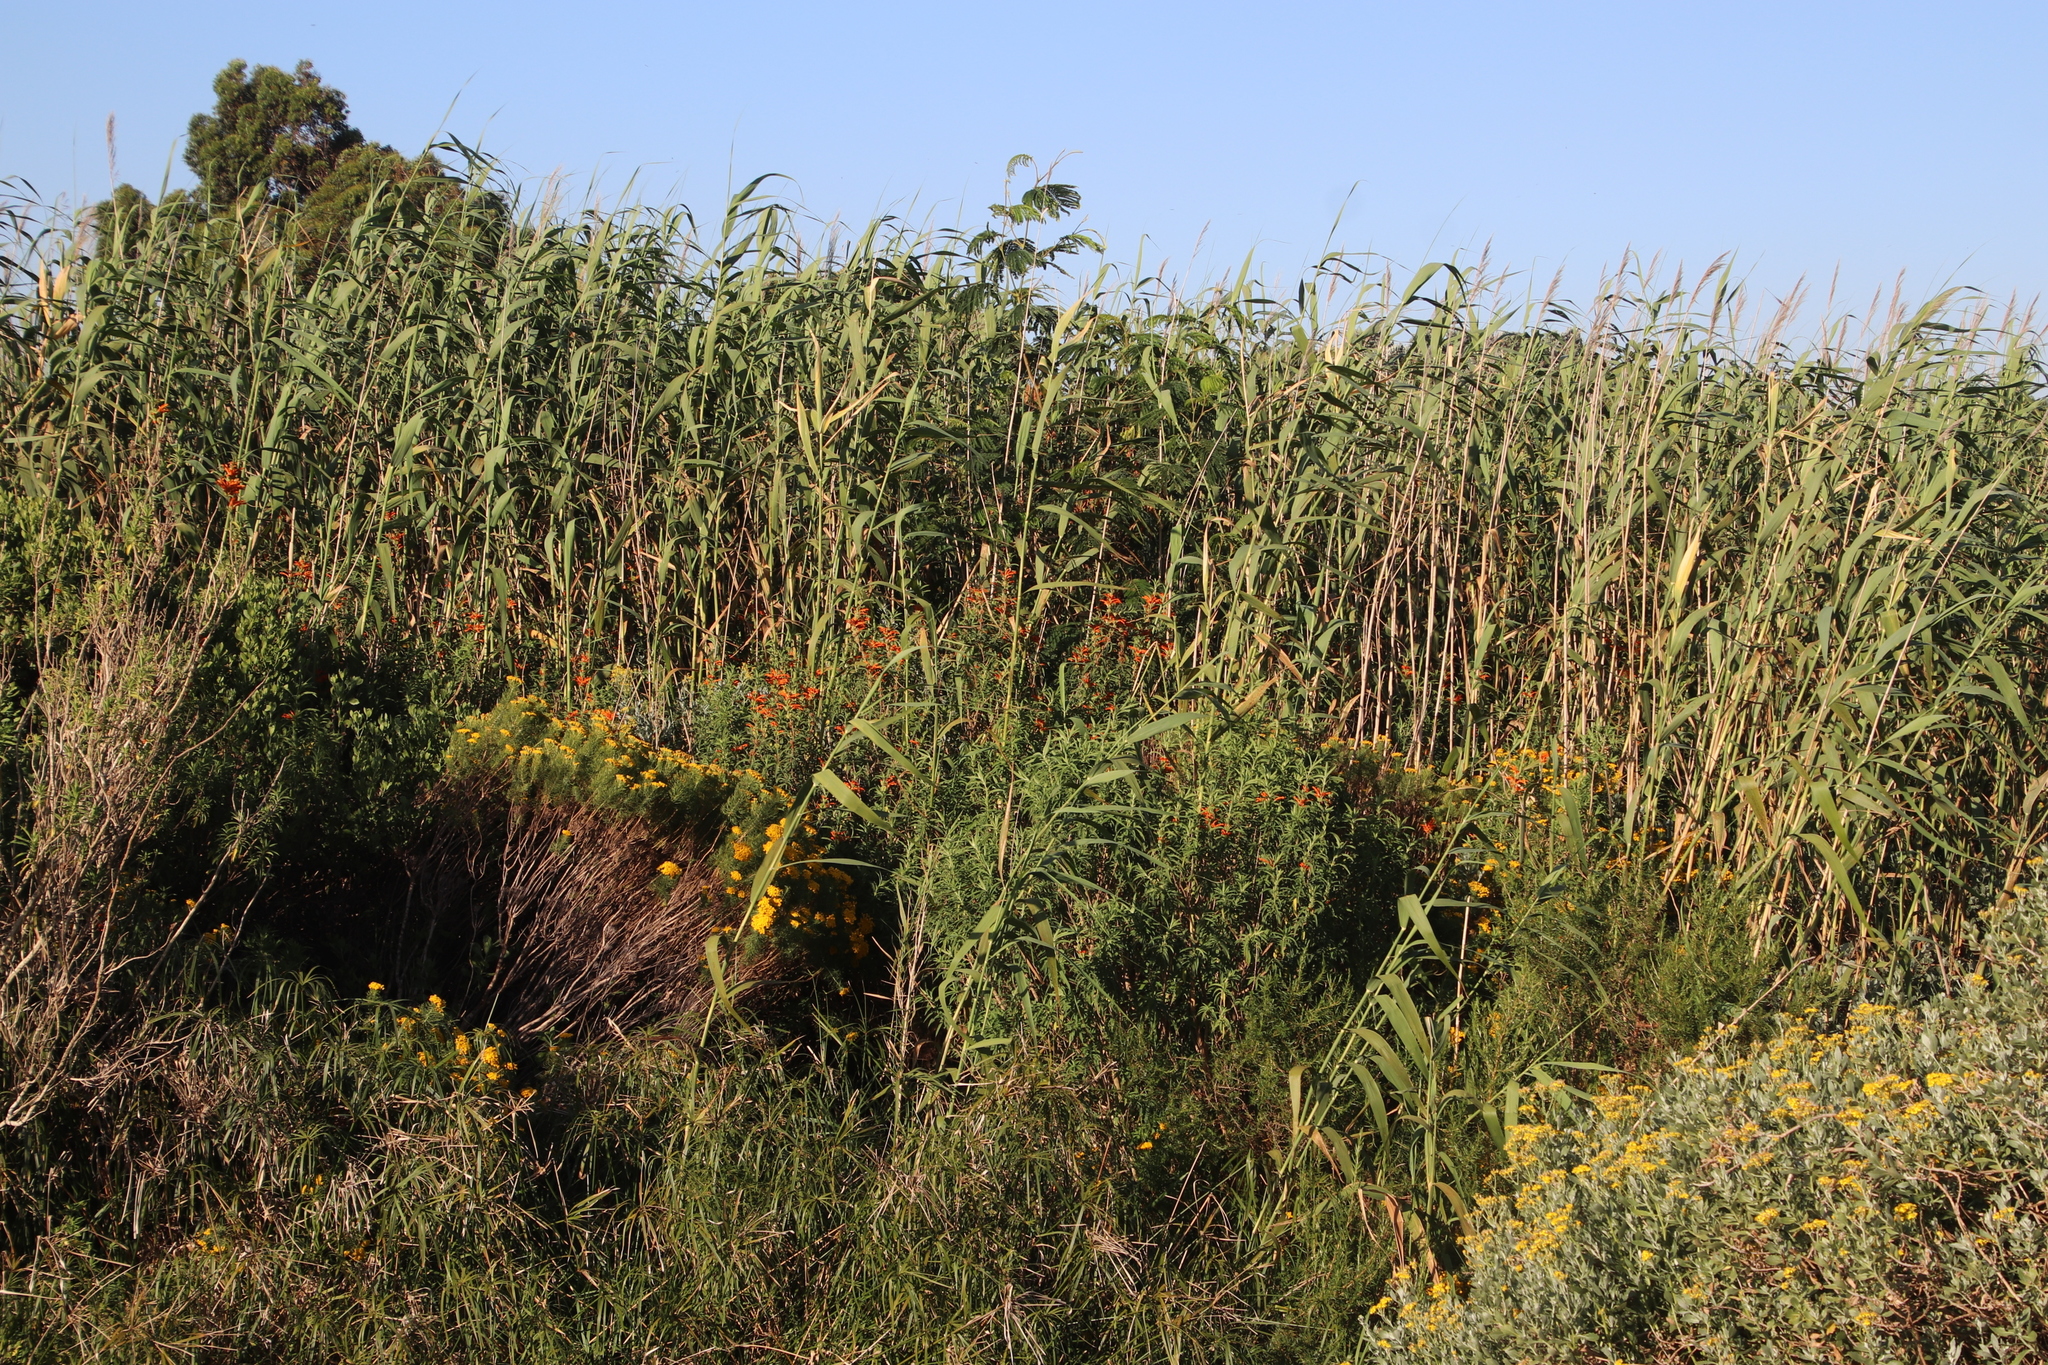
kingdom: Plantae
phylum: Tracheophyta
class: Magnoliopsida
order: Lamiales
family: Lamiaceae
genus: Leonotis
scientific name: Leonotis leonurus
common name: Lion's ear
